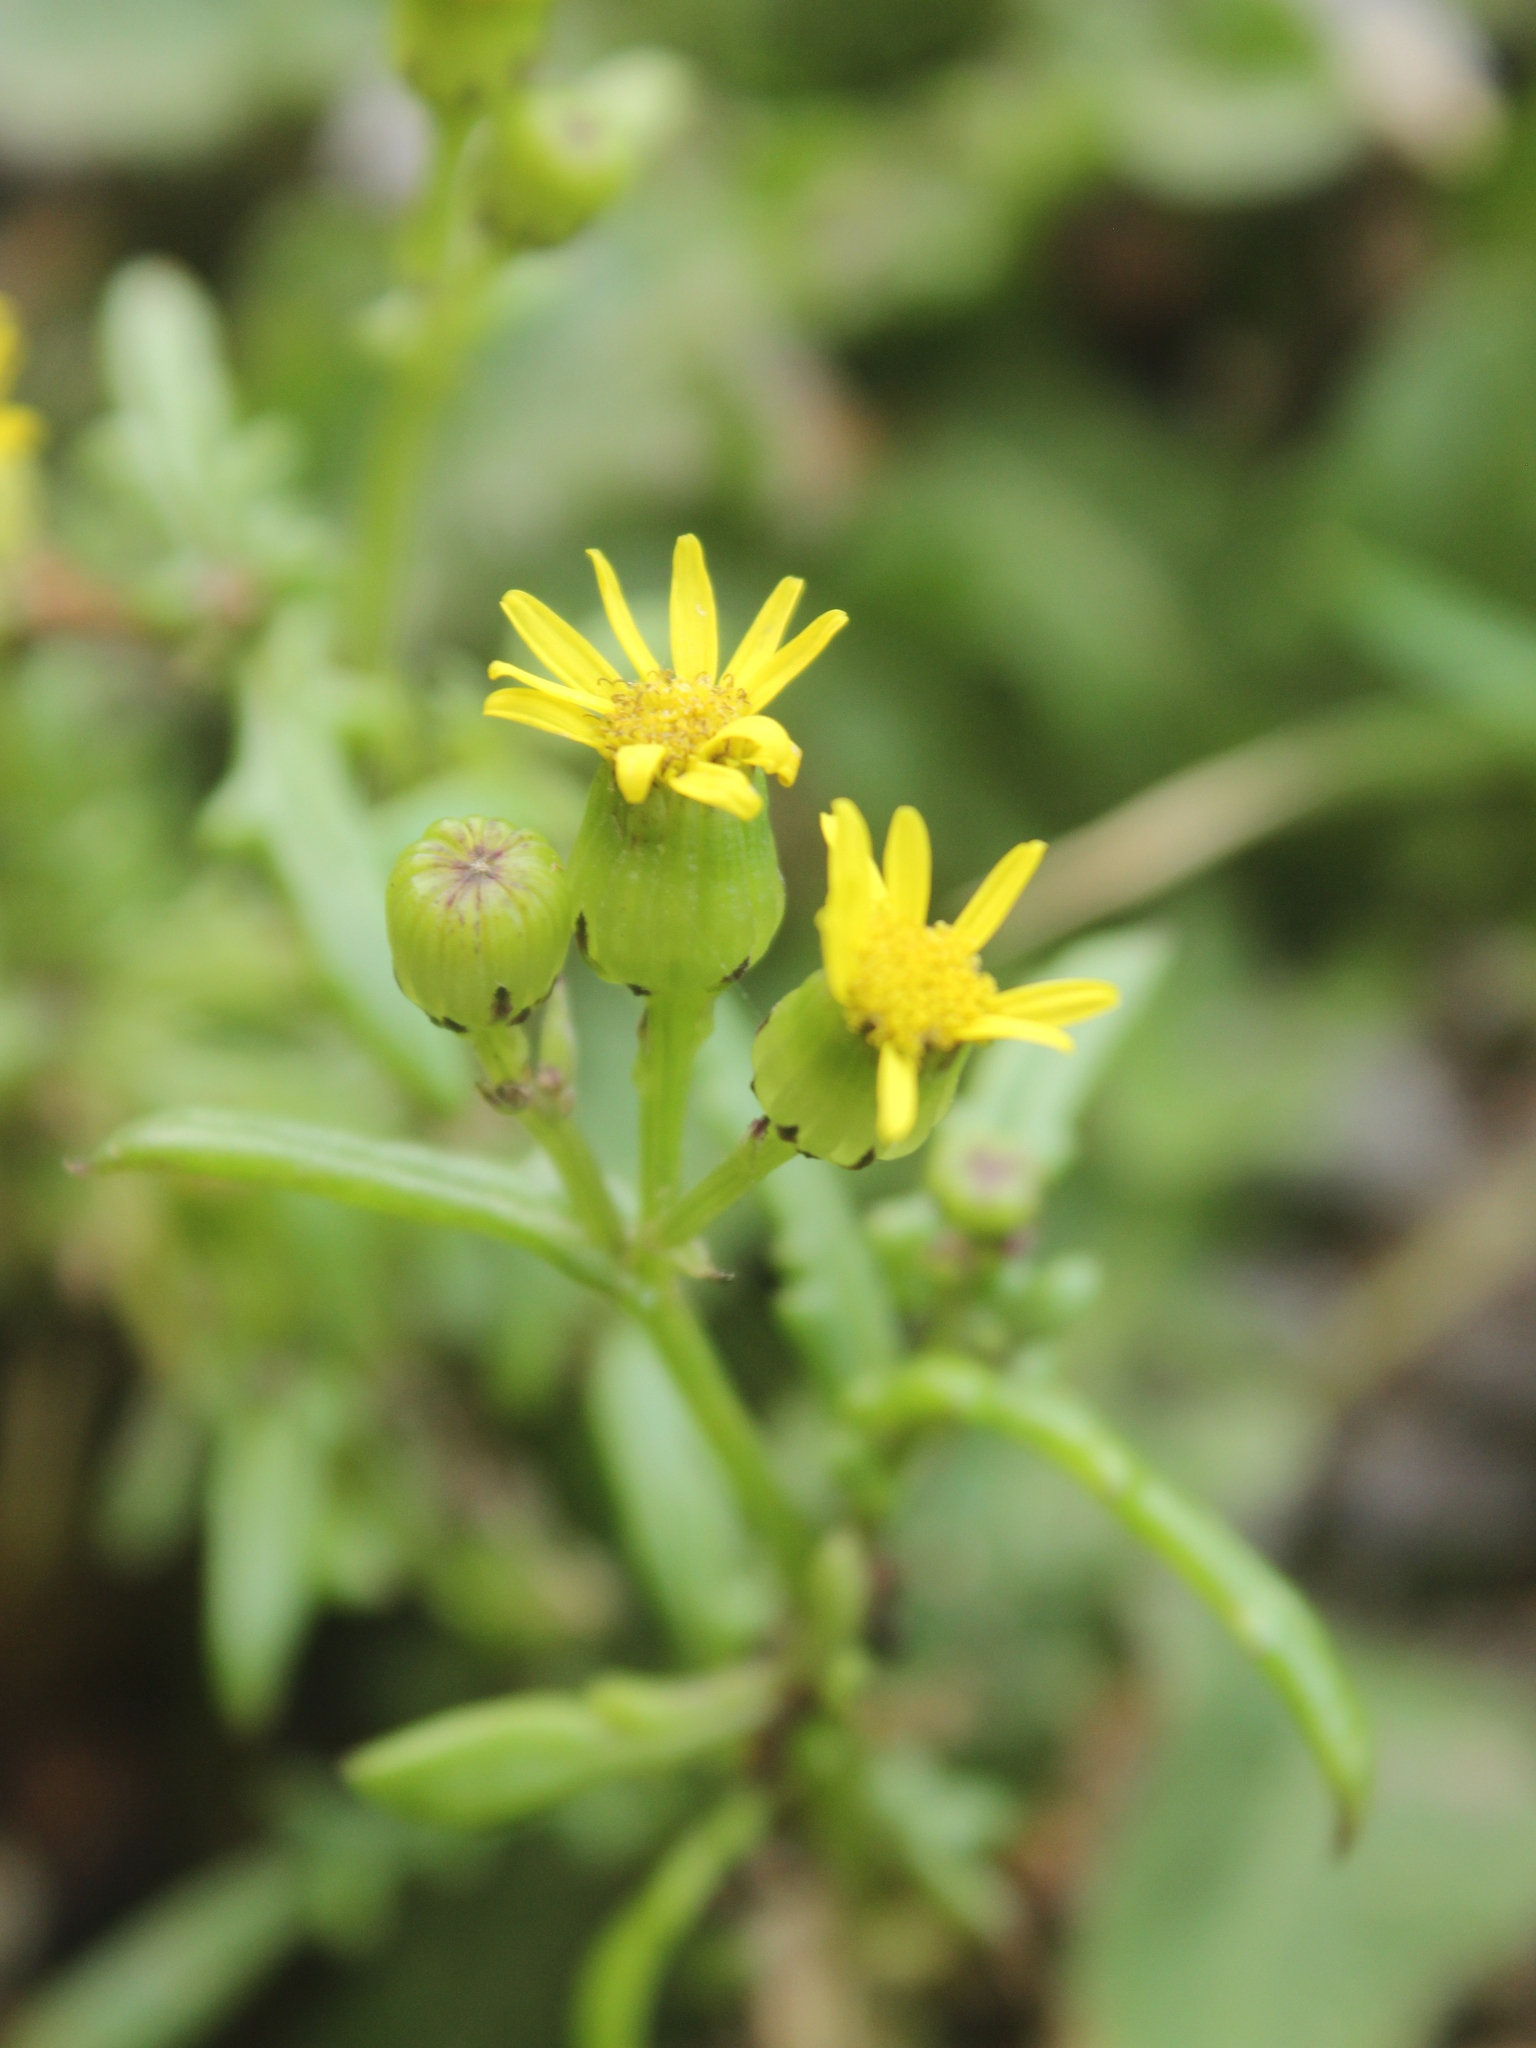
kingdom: Plantae
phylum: Tracheophyta
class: Magnoliopsida
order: Asterales
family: Asteraceae
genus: Senecio
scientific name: Senecio lautus
